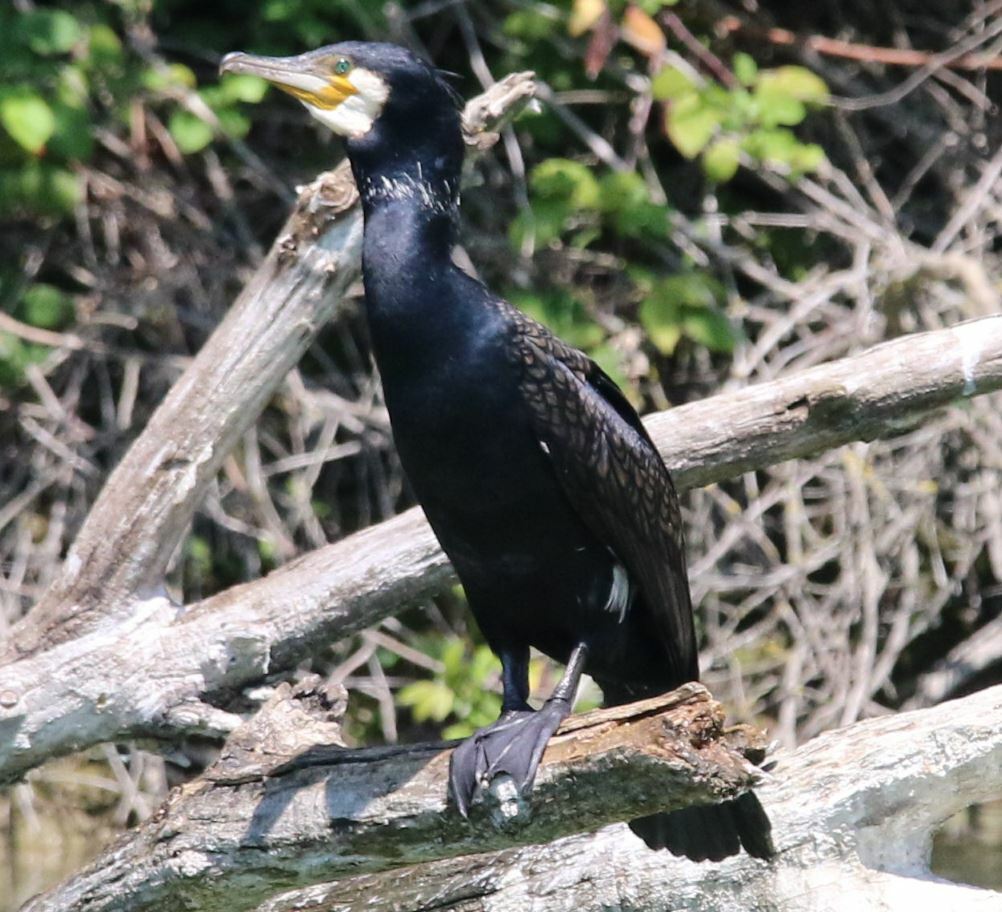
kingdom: Animalia
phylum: Chordata
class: Aves
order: Suliformes
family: Phalacrocoracidae
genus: Phalacrocorax
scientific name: Phalacrocorax carbo
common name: Great cormorant
